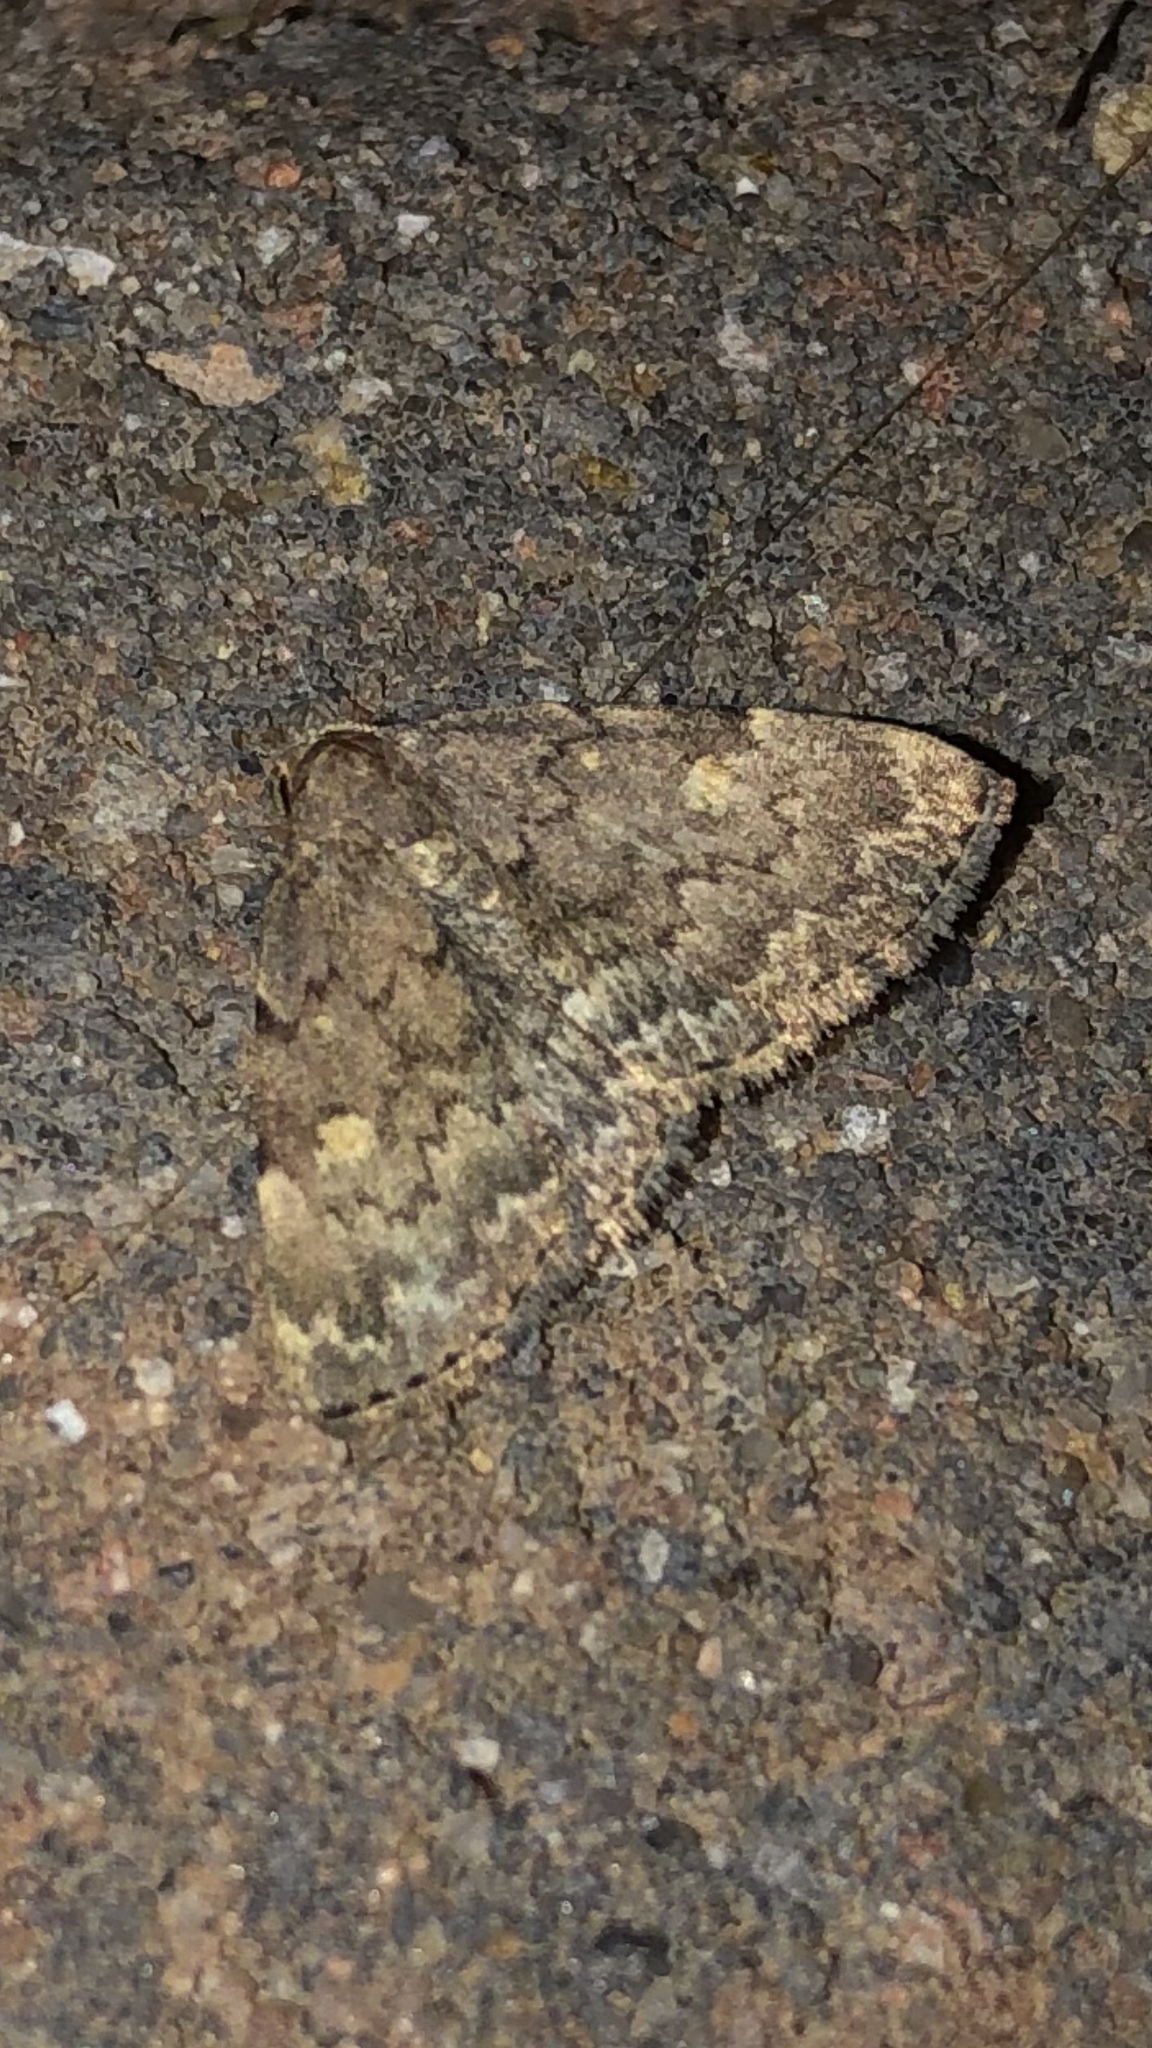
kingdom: Animalia
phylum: Arthropoda
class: Insecta
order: Lepidoptera
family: Erebidae
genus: Idia
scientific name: Idia aemula
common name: Common idia moth
